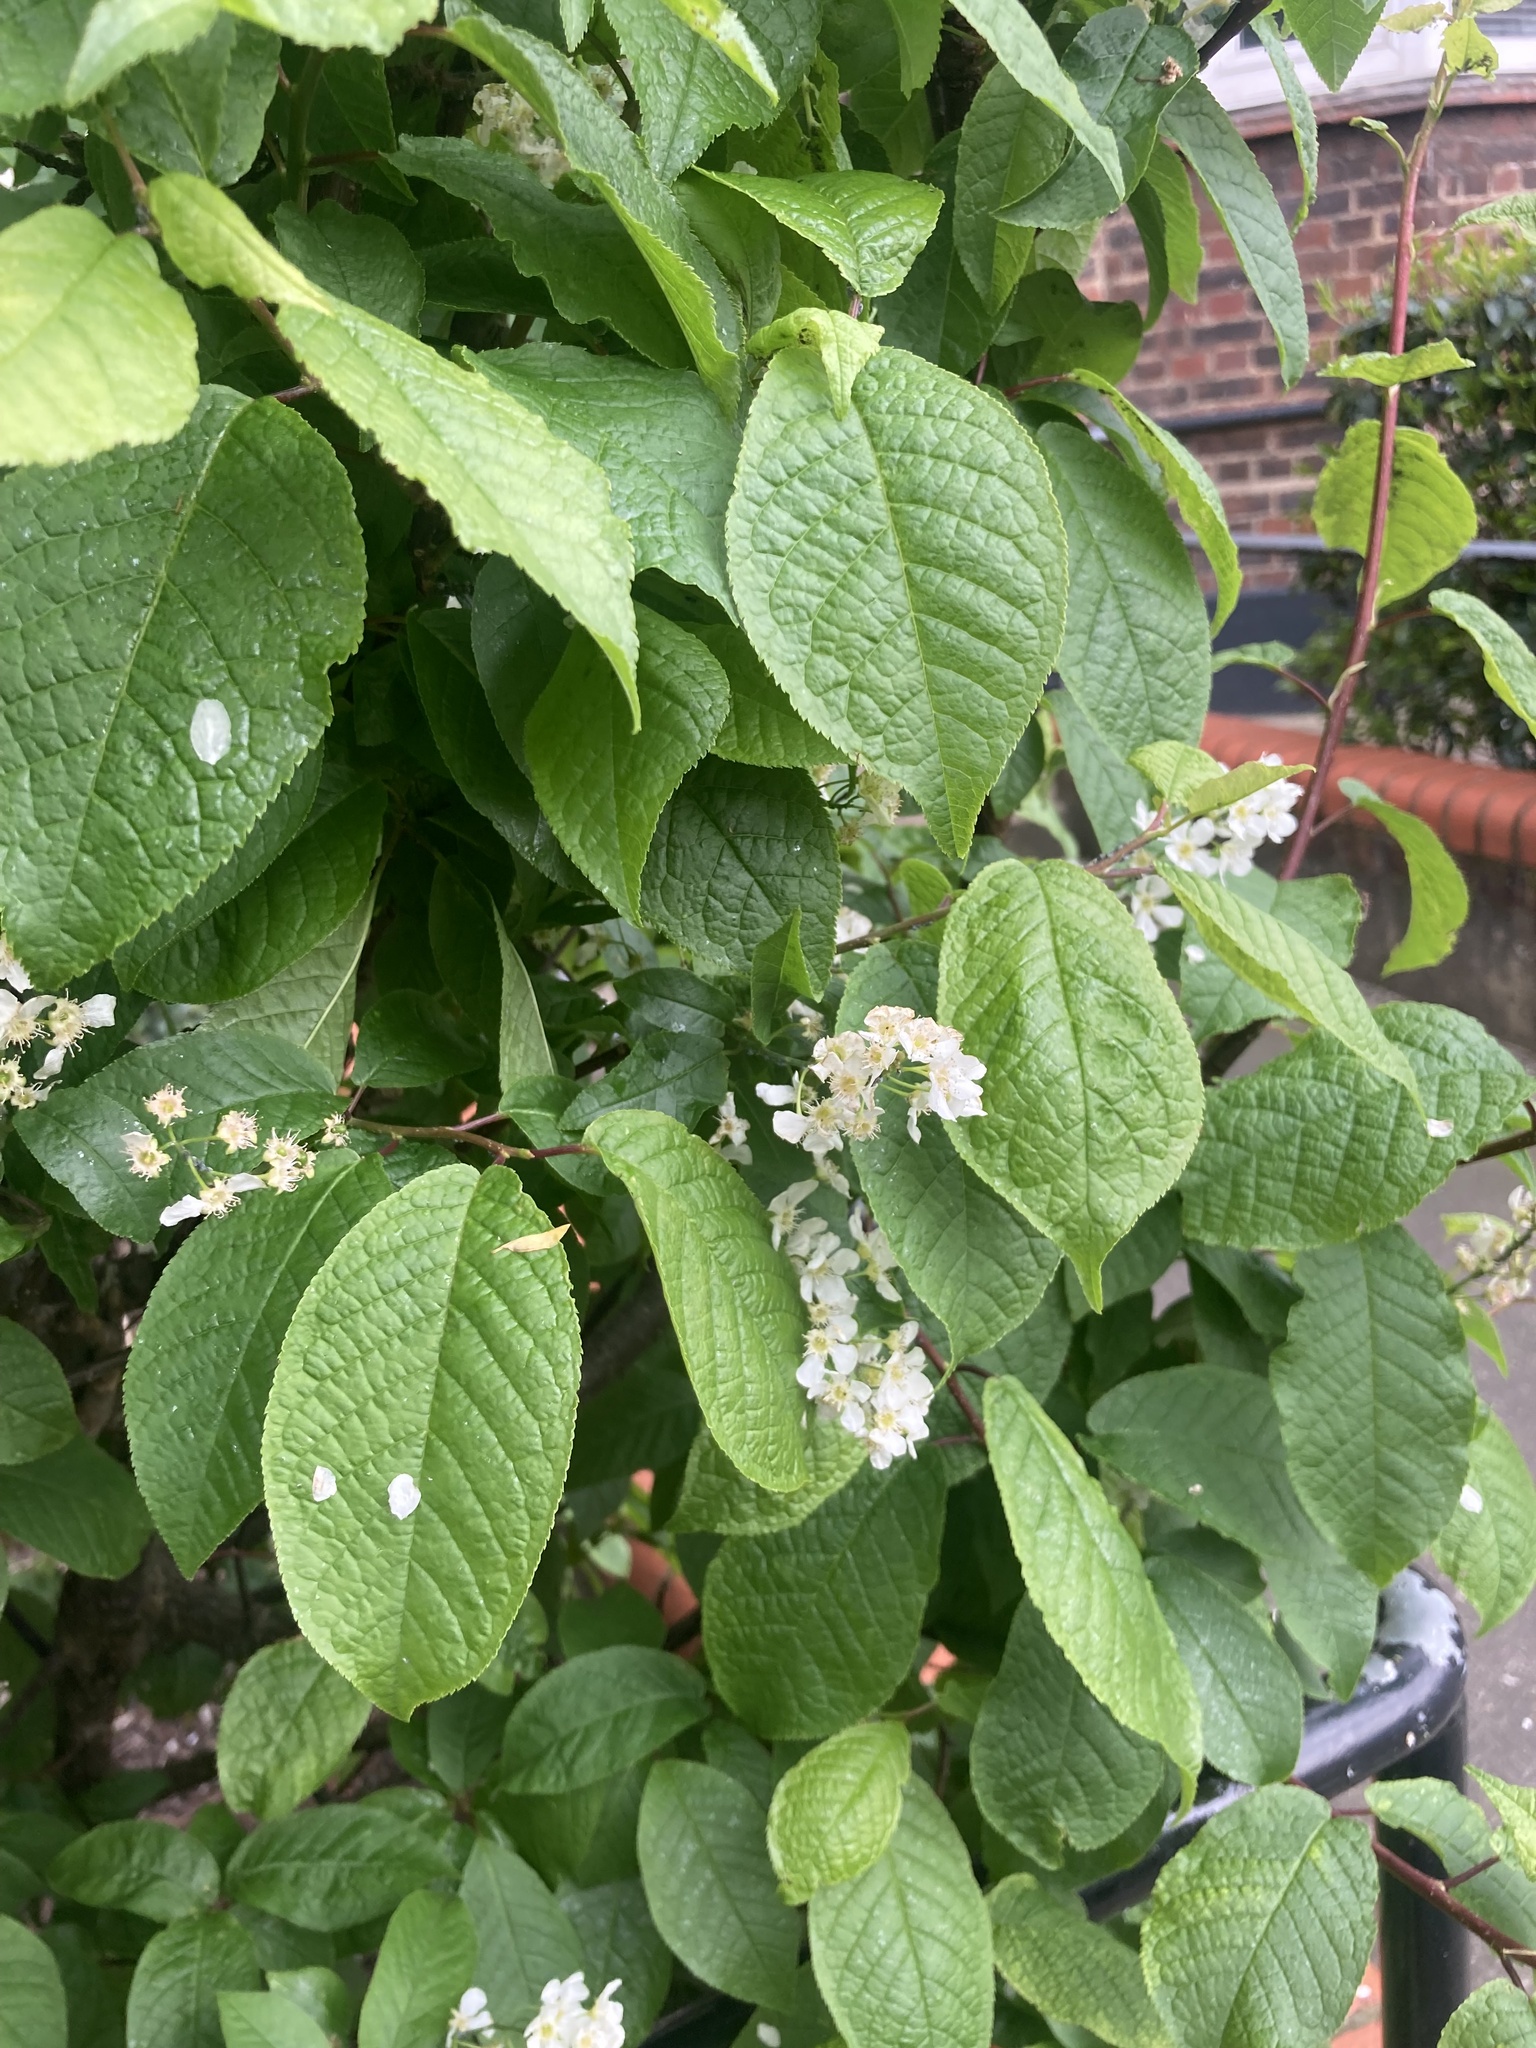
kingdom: Plantae
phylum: Tracheophyta
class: Magnoliopsida
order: Rosales
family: Rosaceae
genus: Prunus
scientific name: Prunus padus
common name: Bird cherry
